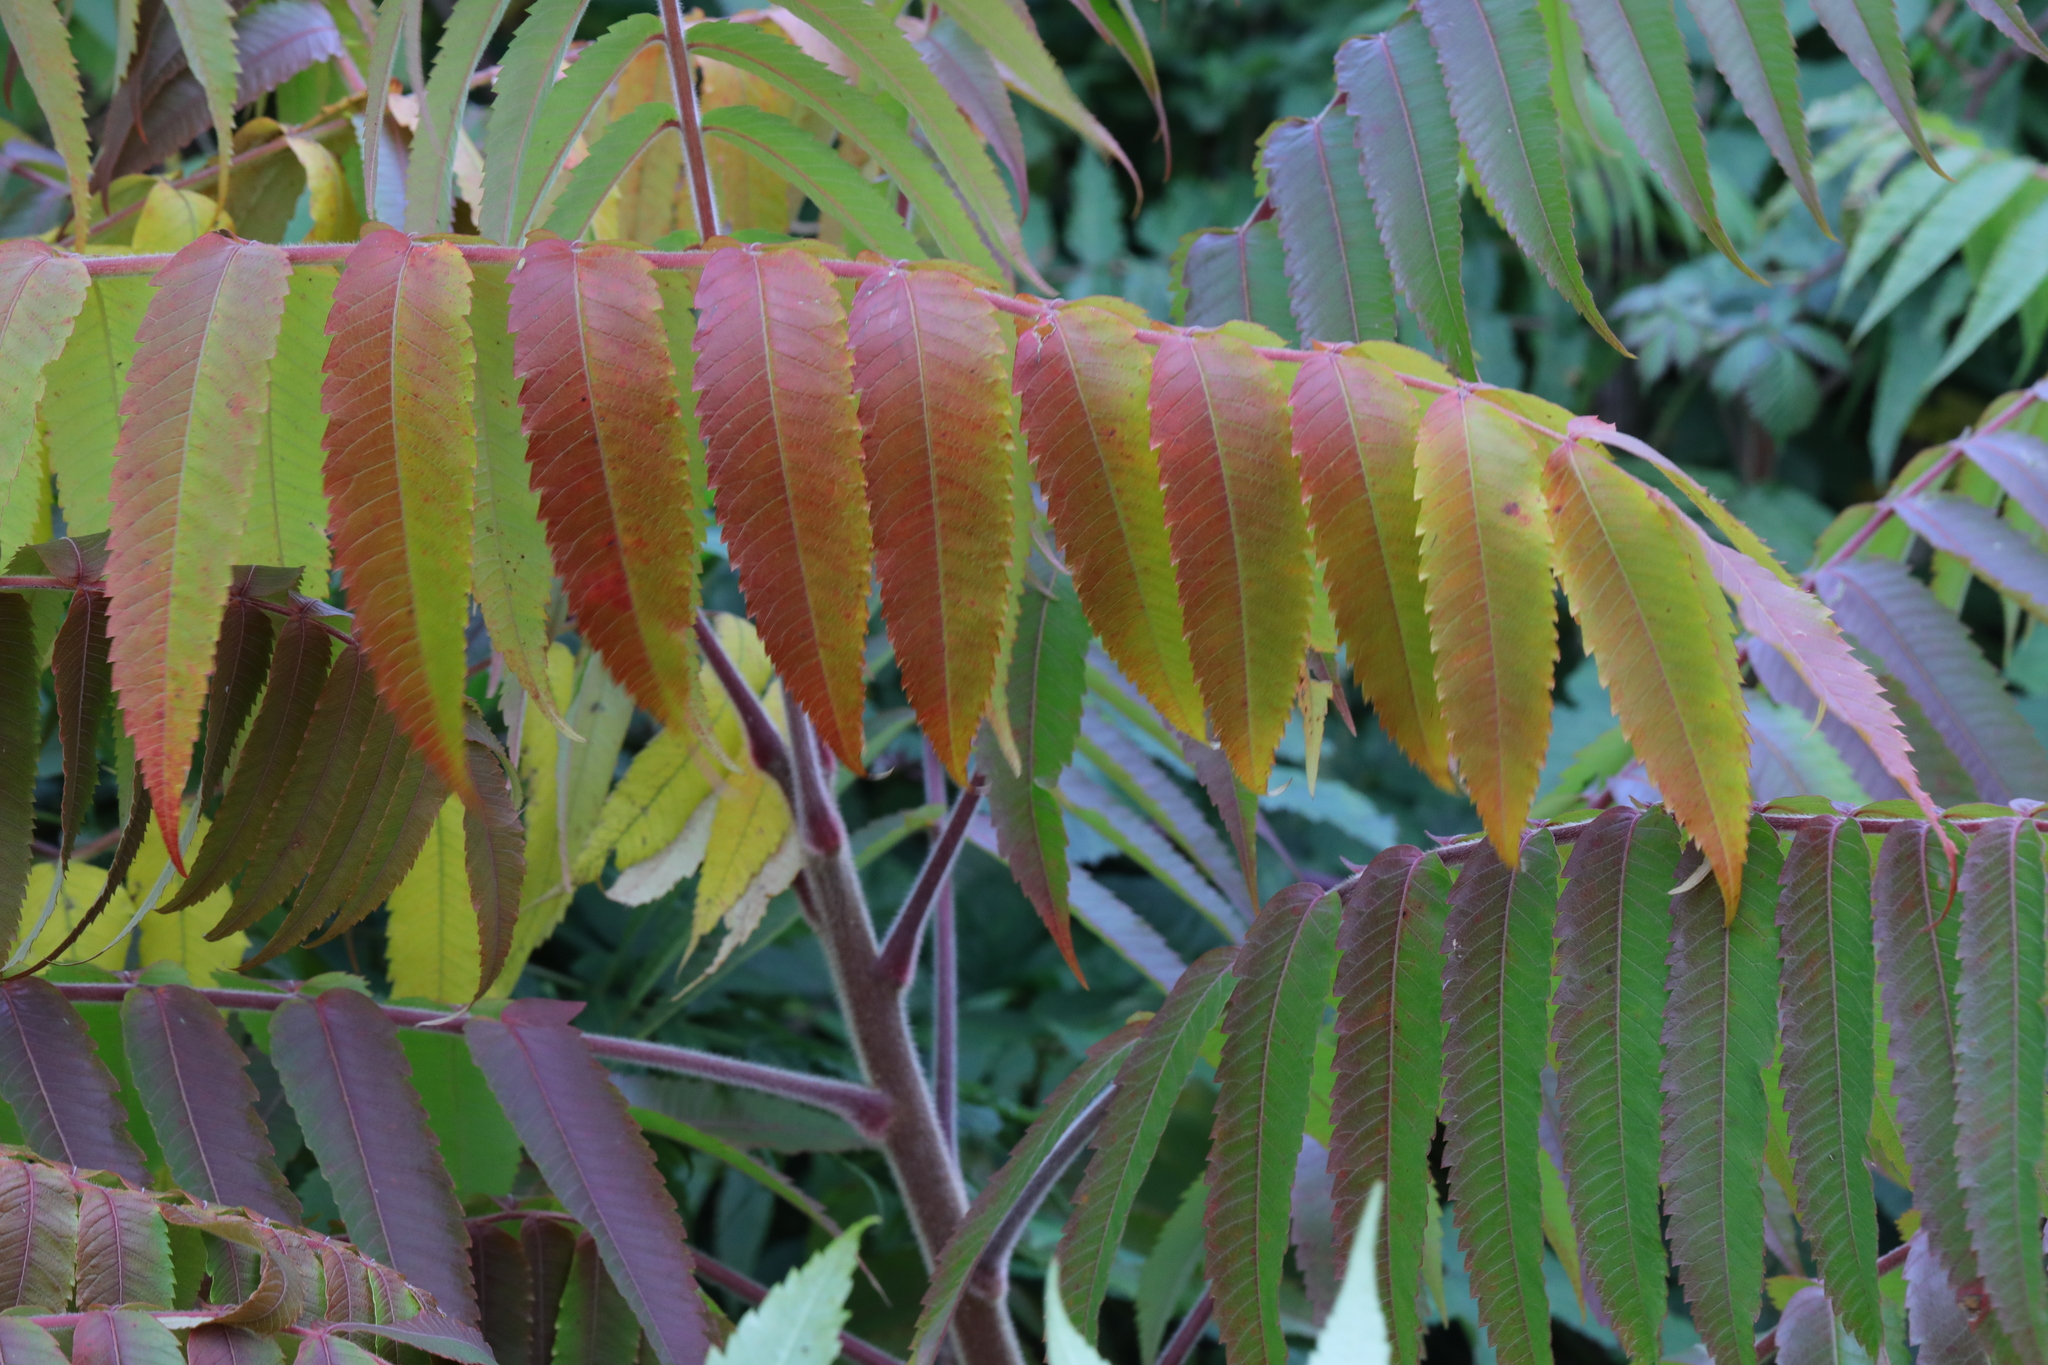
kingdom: Plantae
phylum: Tracheophyta
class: Magnoliopsida
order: Sapindales
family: Anacardiaceae
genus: Rhus
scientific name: Rhus typhina
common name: Staghorn sumac
